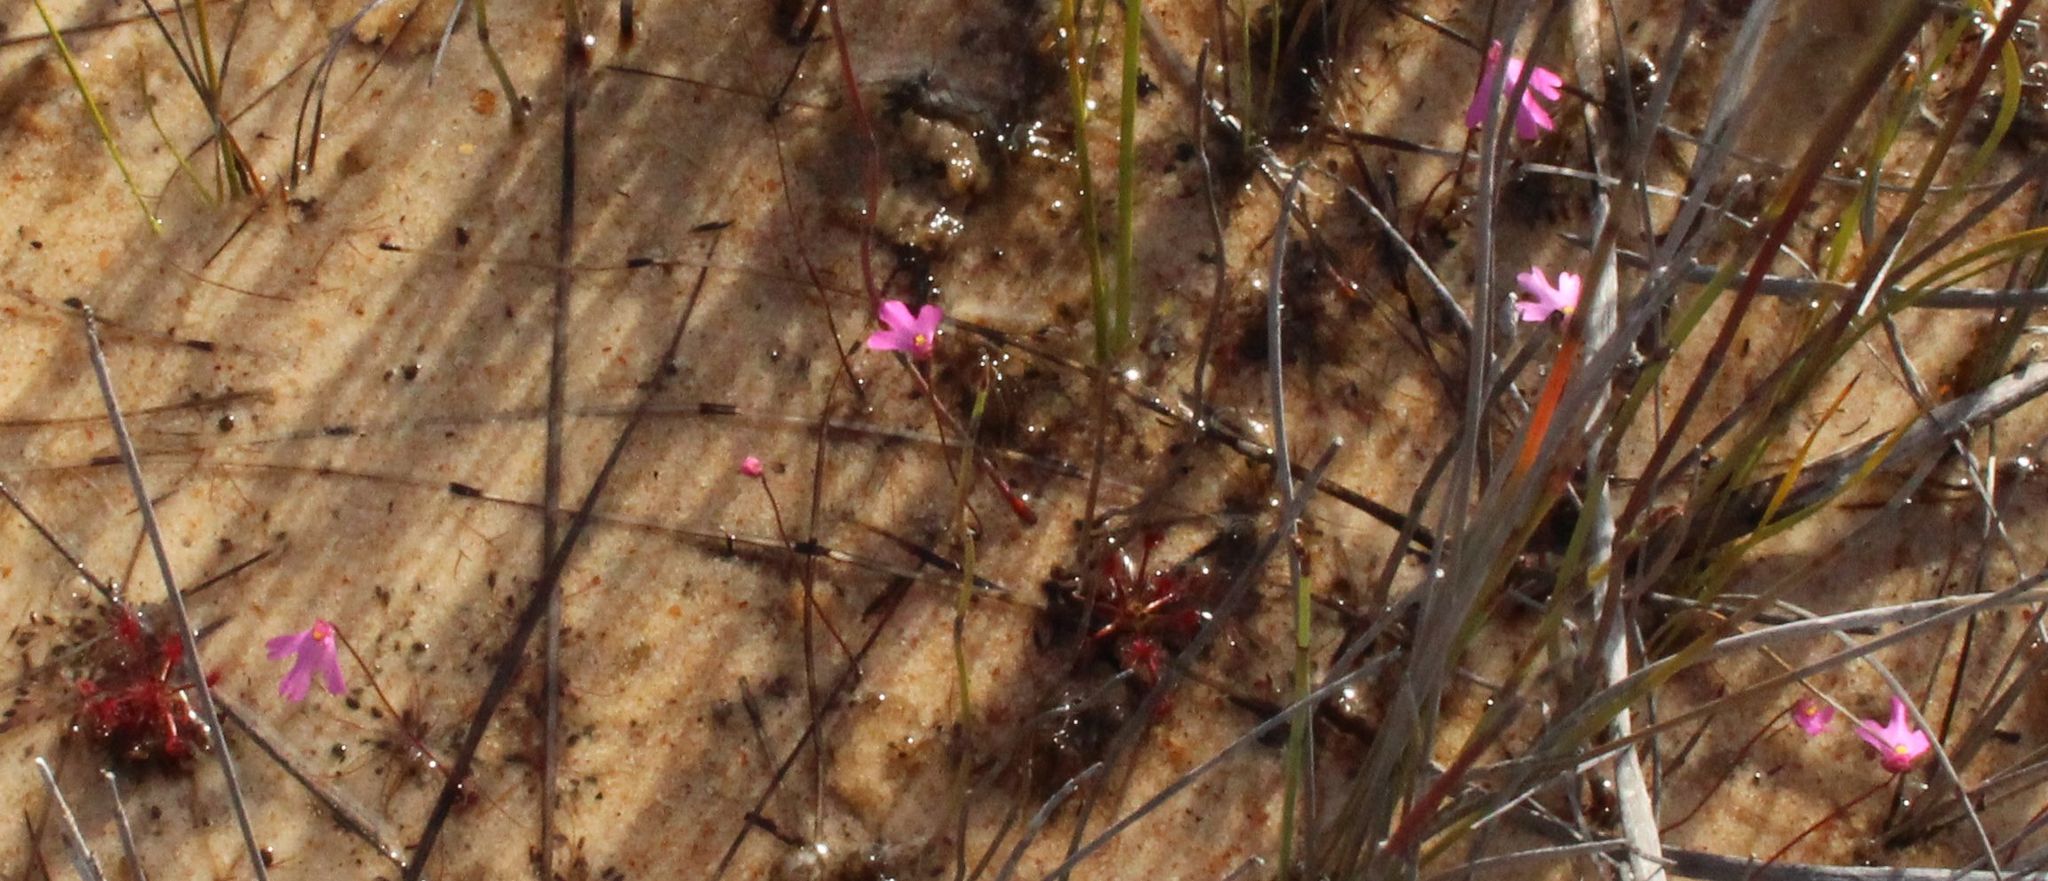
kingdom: Plantae
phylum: Tracheophyta
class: Magnoliopsida
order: Lamiales
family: Lentibulariaceae
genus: Utricularia
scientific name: Utricularia multifida
